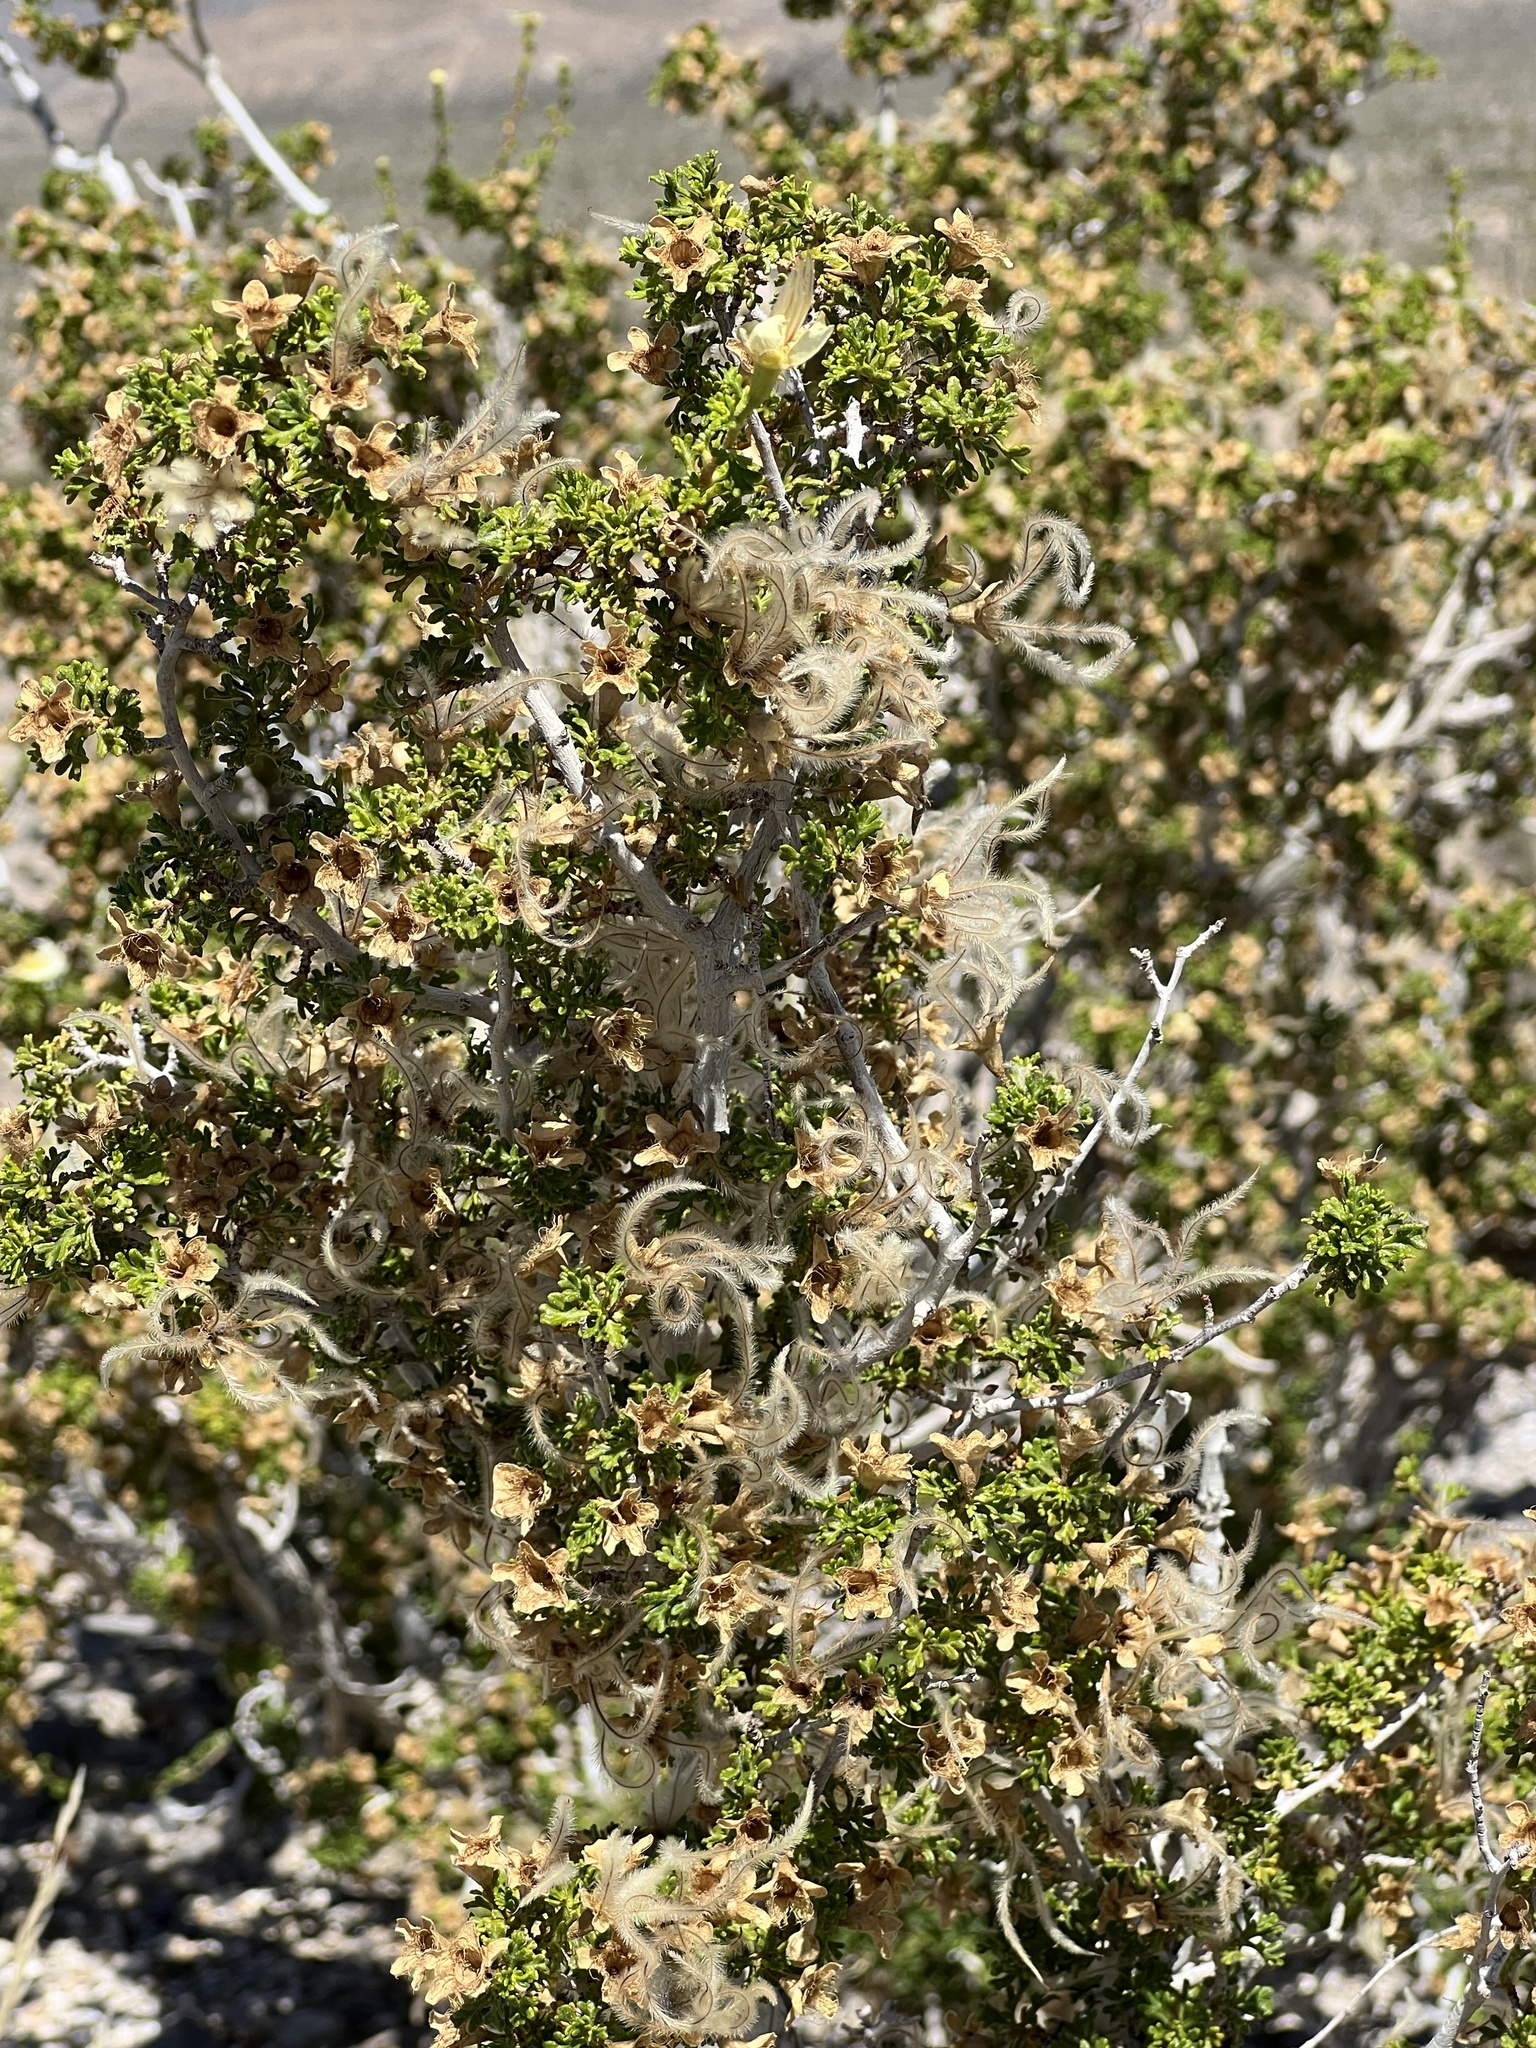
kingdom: Plantae
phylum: Tracheophyta
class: Magnoliopsida
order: Rosales
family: Rosaceae
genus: Purshia
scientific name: Purshia stansburiana
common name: Stansbury's cliffrose
